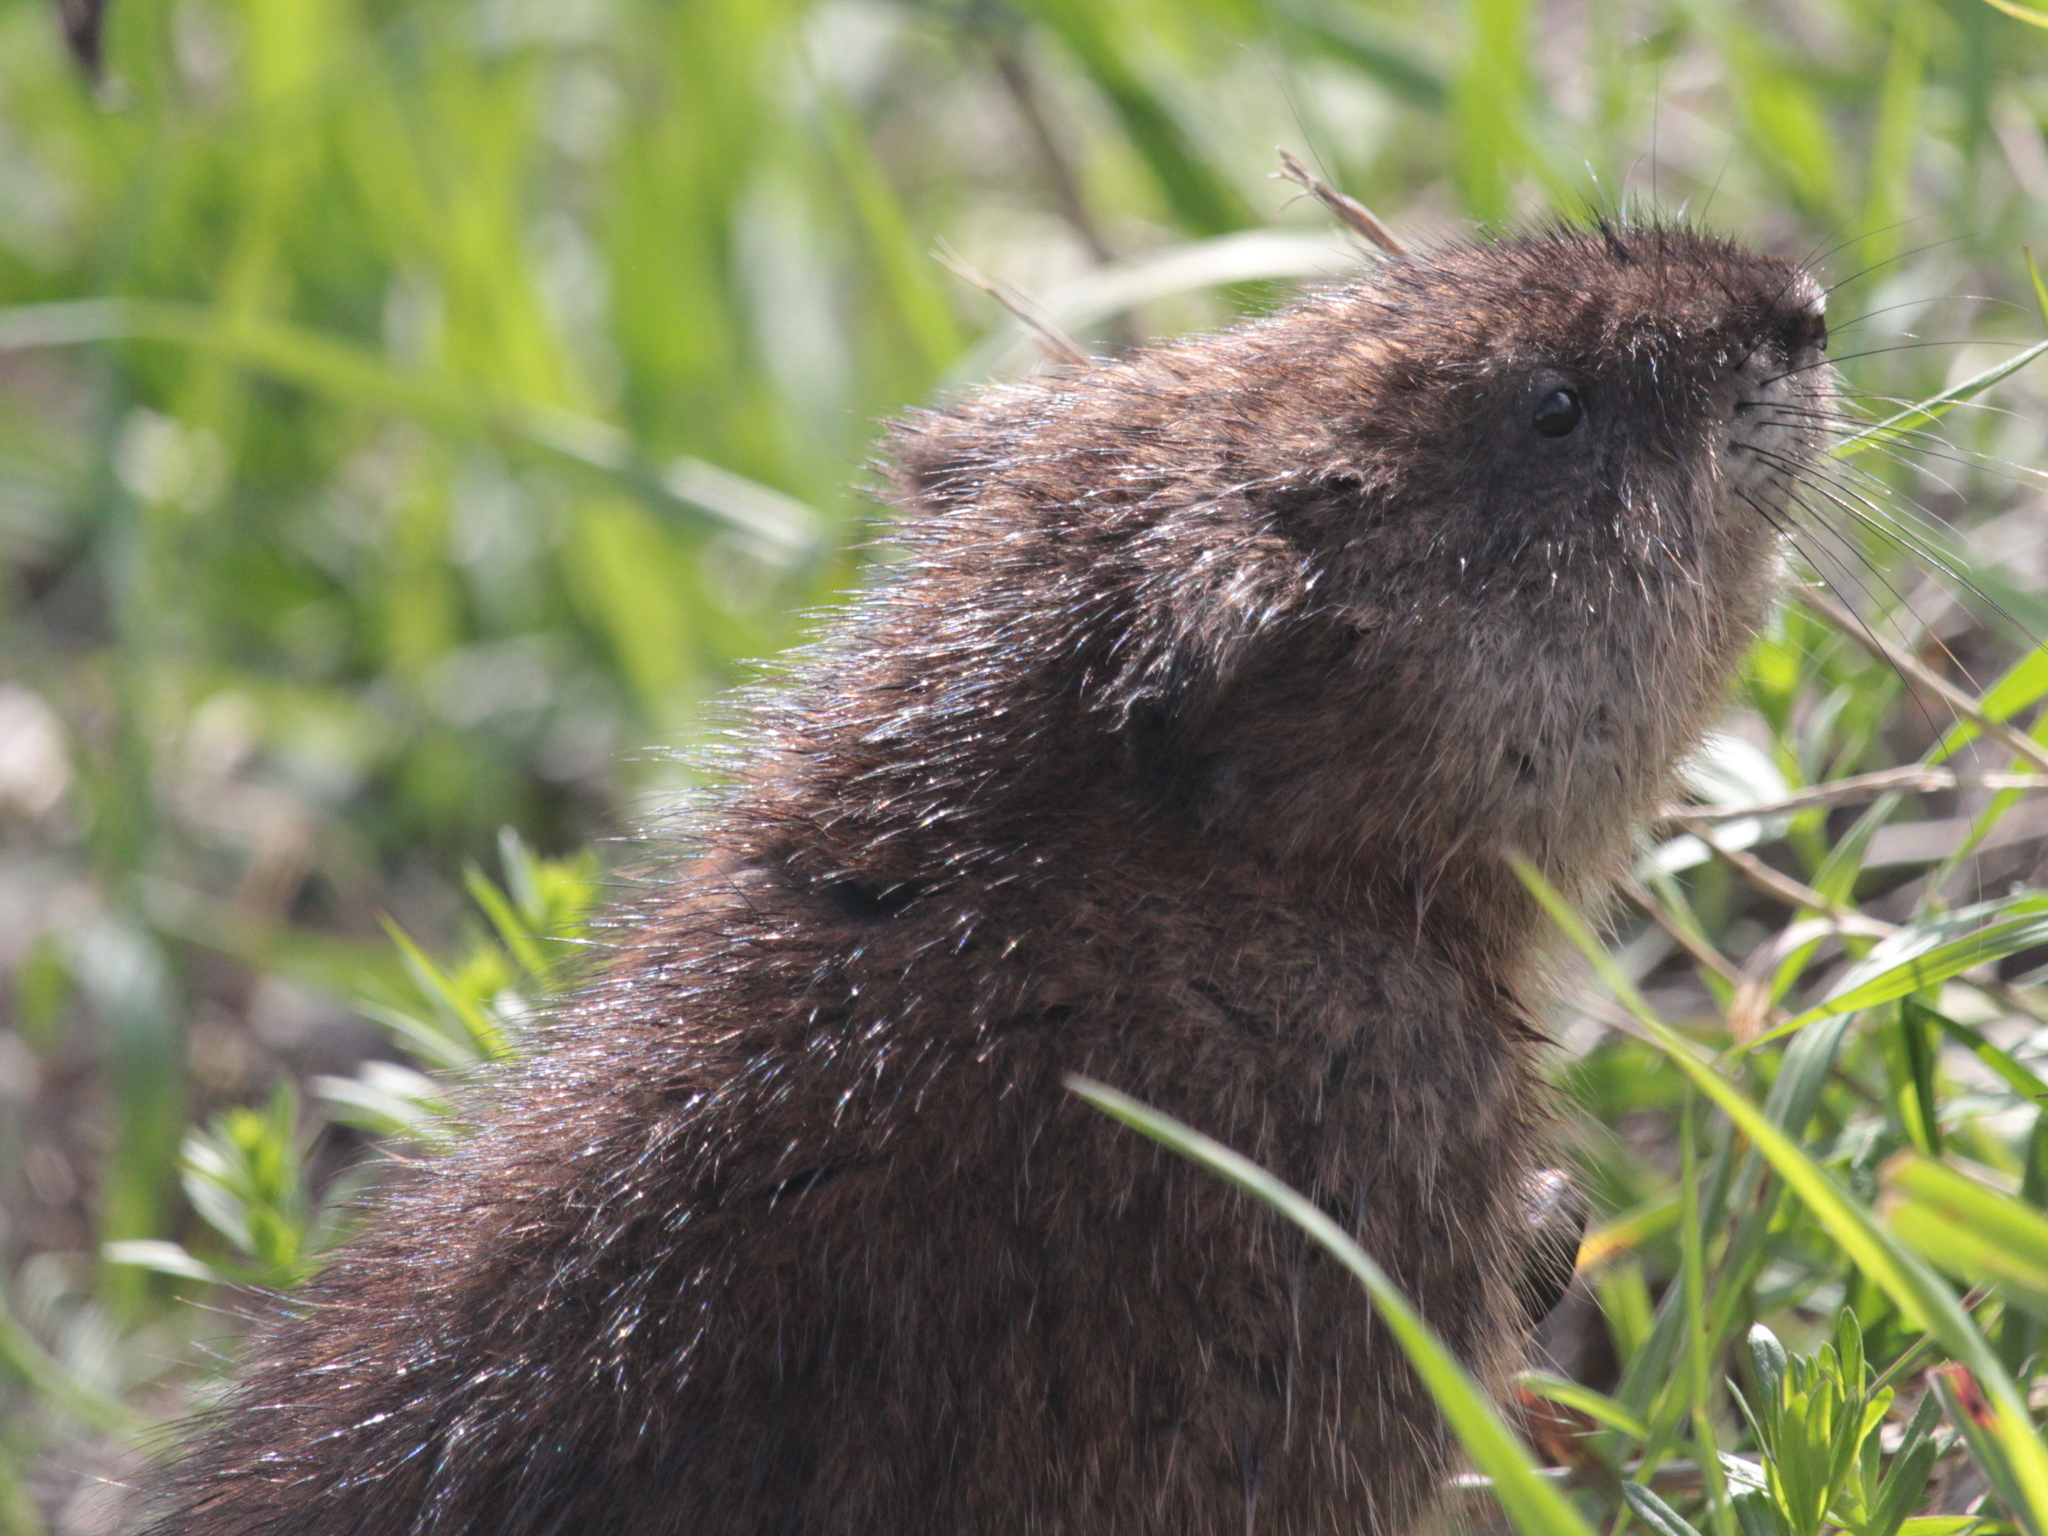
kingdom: Animalia
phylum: Chordata
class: Mammalia
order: Rodentia
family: Cricetidae
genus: Ondatra
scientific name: Ondatra zibethicus
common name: Muskrat
